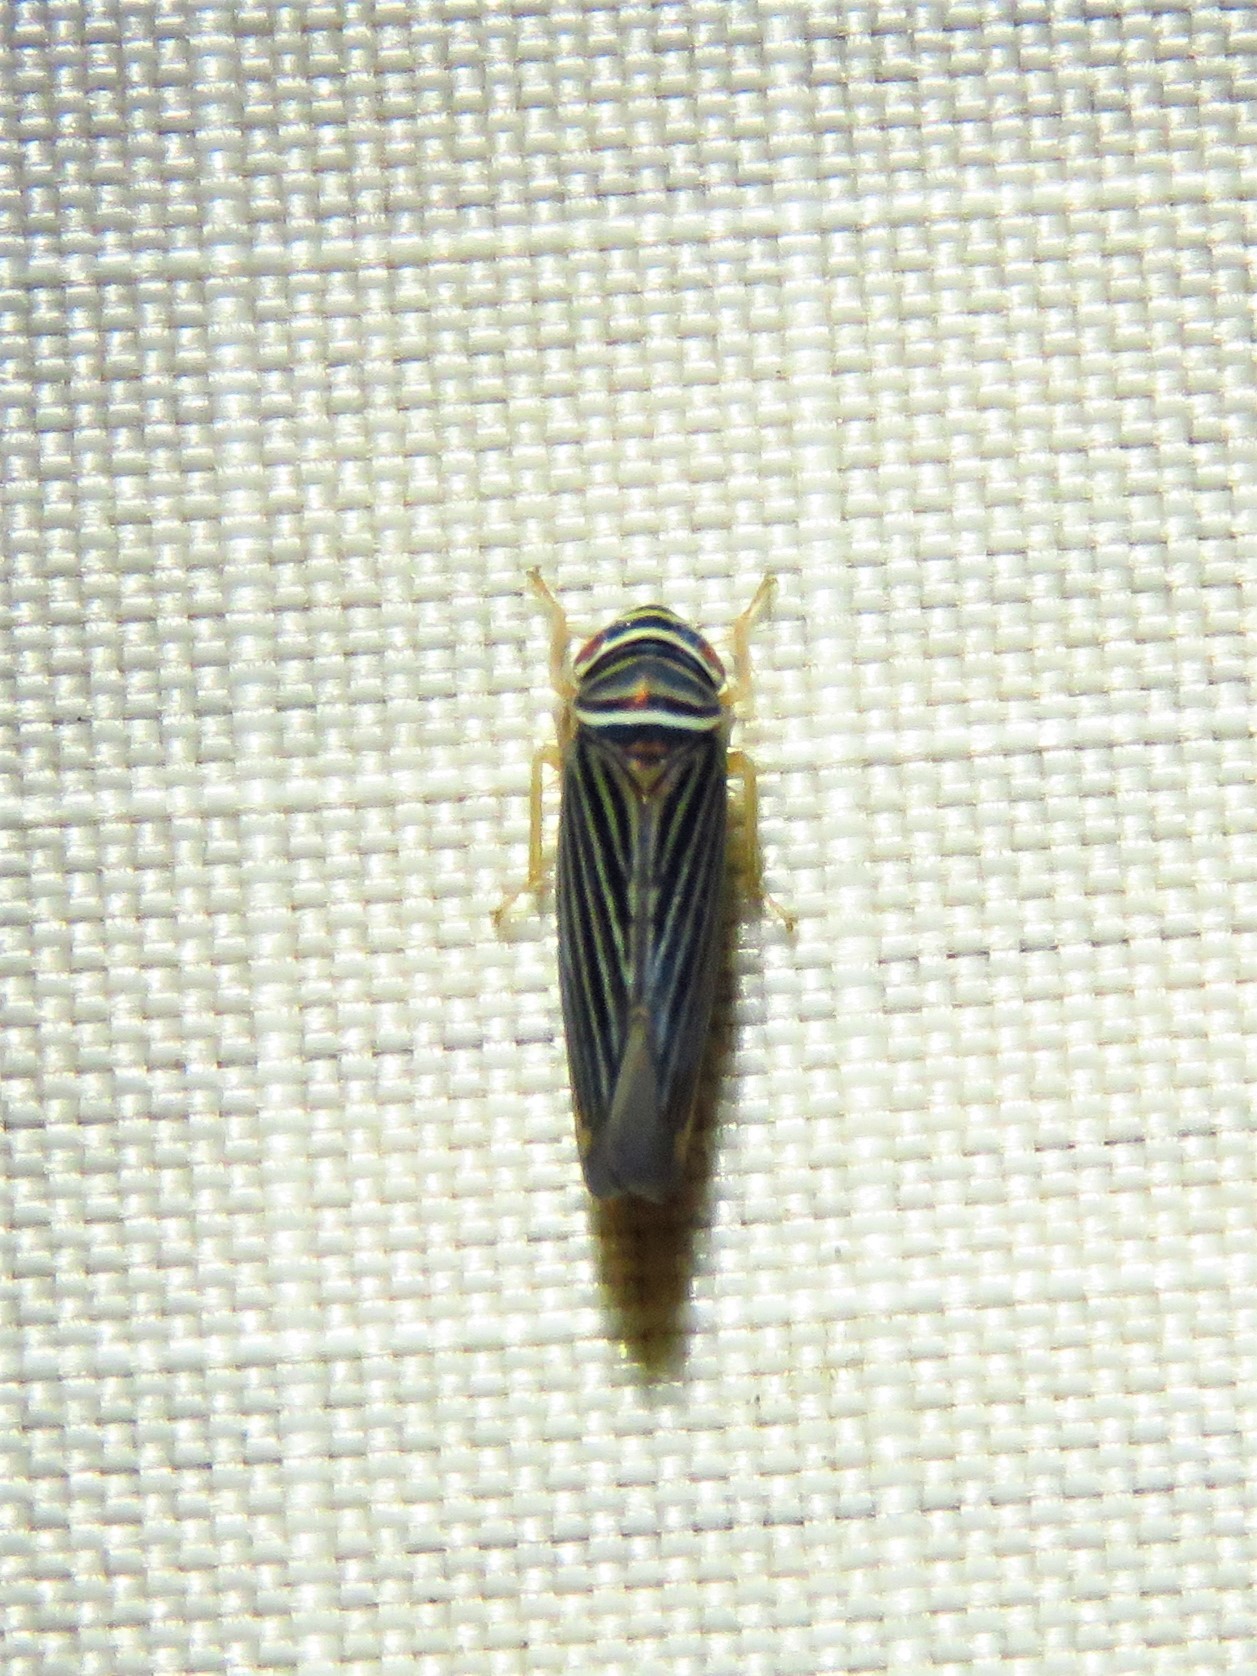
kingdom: Animalia
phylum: Arthropoda
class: Insecta
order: Hemiptera
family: Cicadellidae
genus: Tylozygus
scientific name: Tylozygus bifidus
